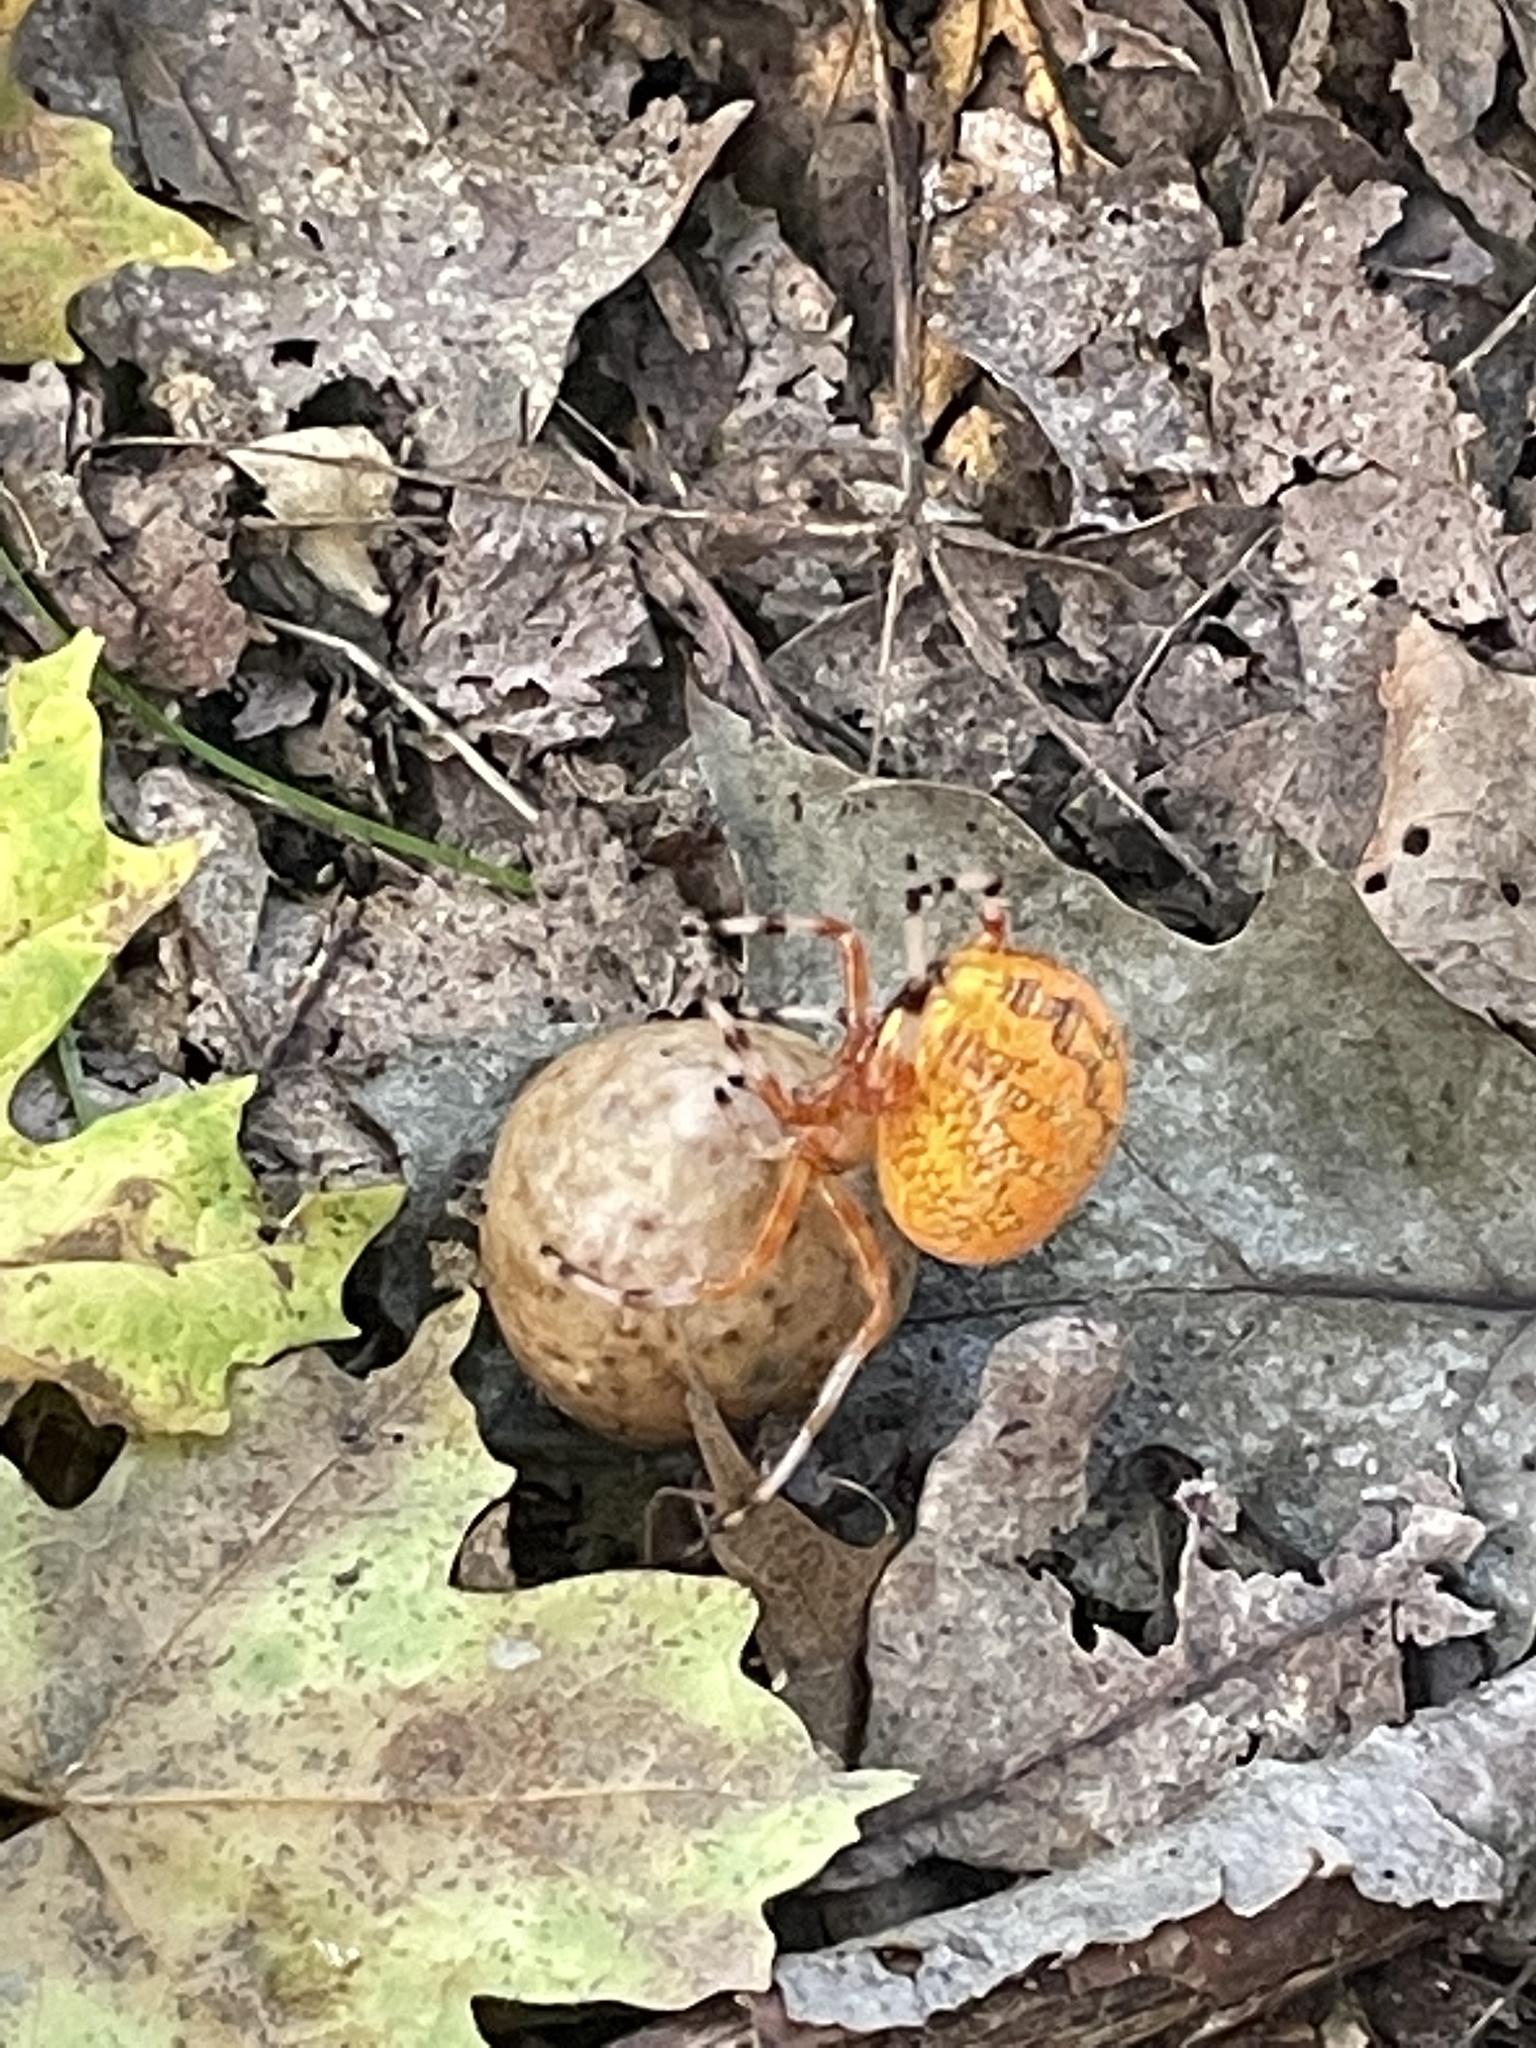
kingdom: Animalia
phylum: Arthropoda
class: Arachnida
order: Araneae
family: Araneidae
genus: Araneus
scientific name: Araneus marmoreus
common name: Marbled orbweaver
